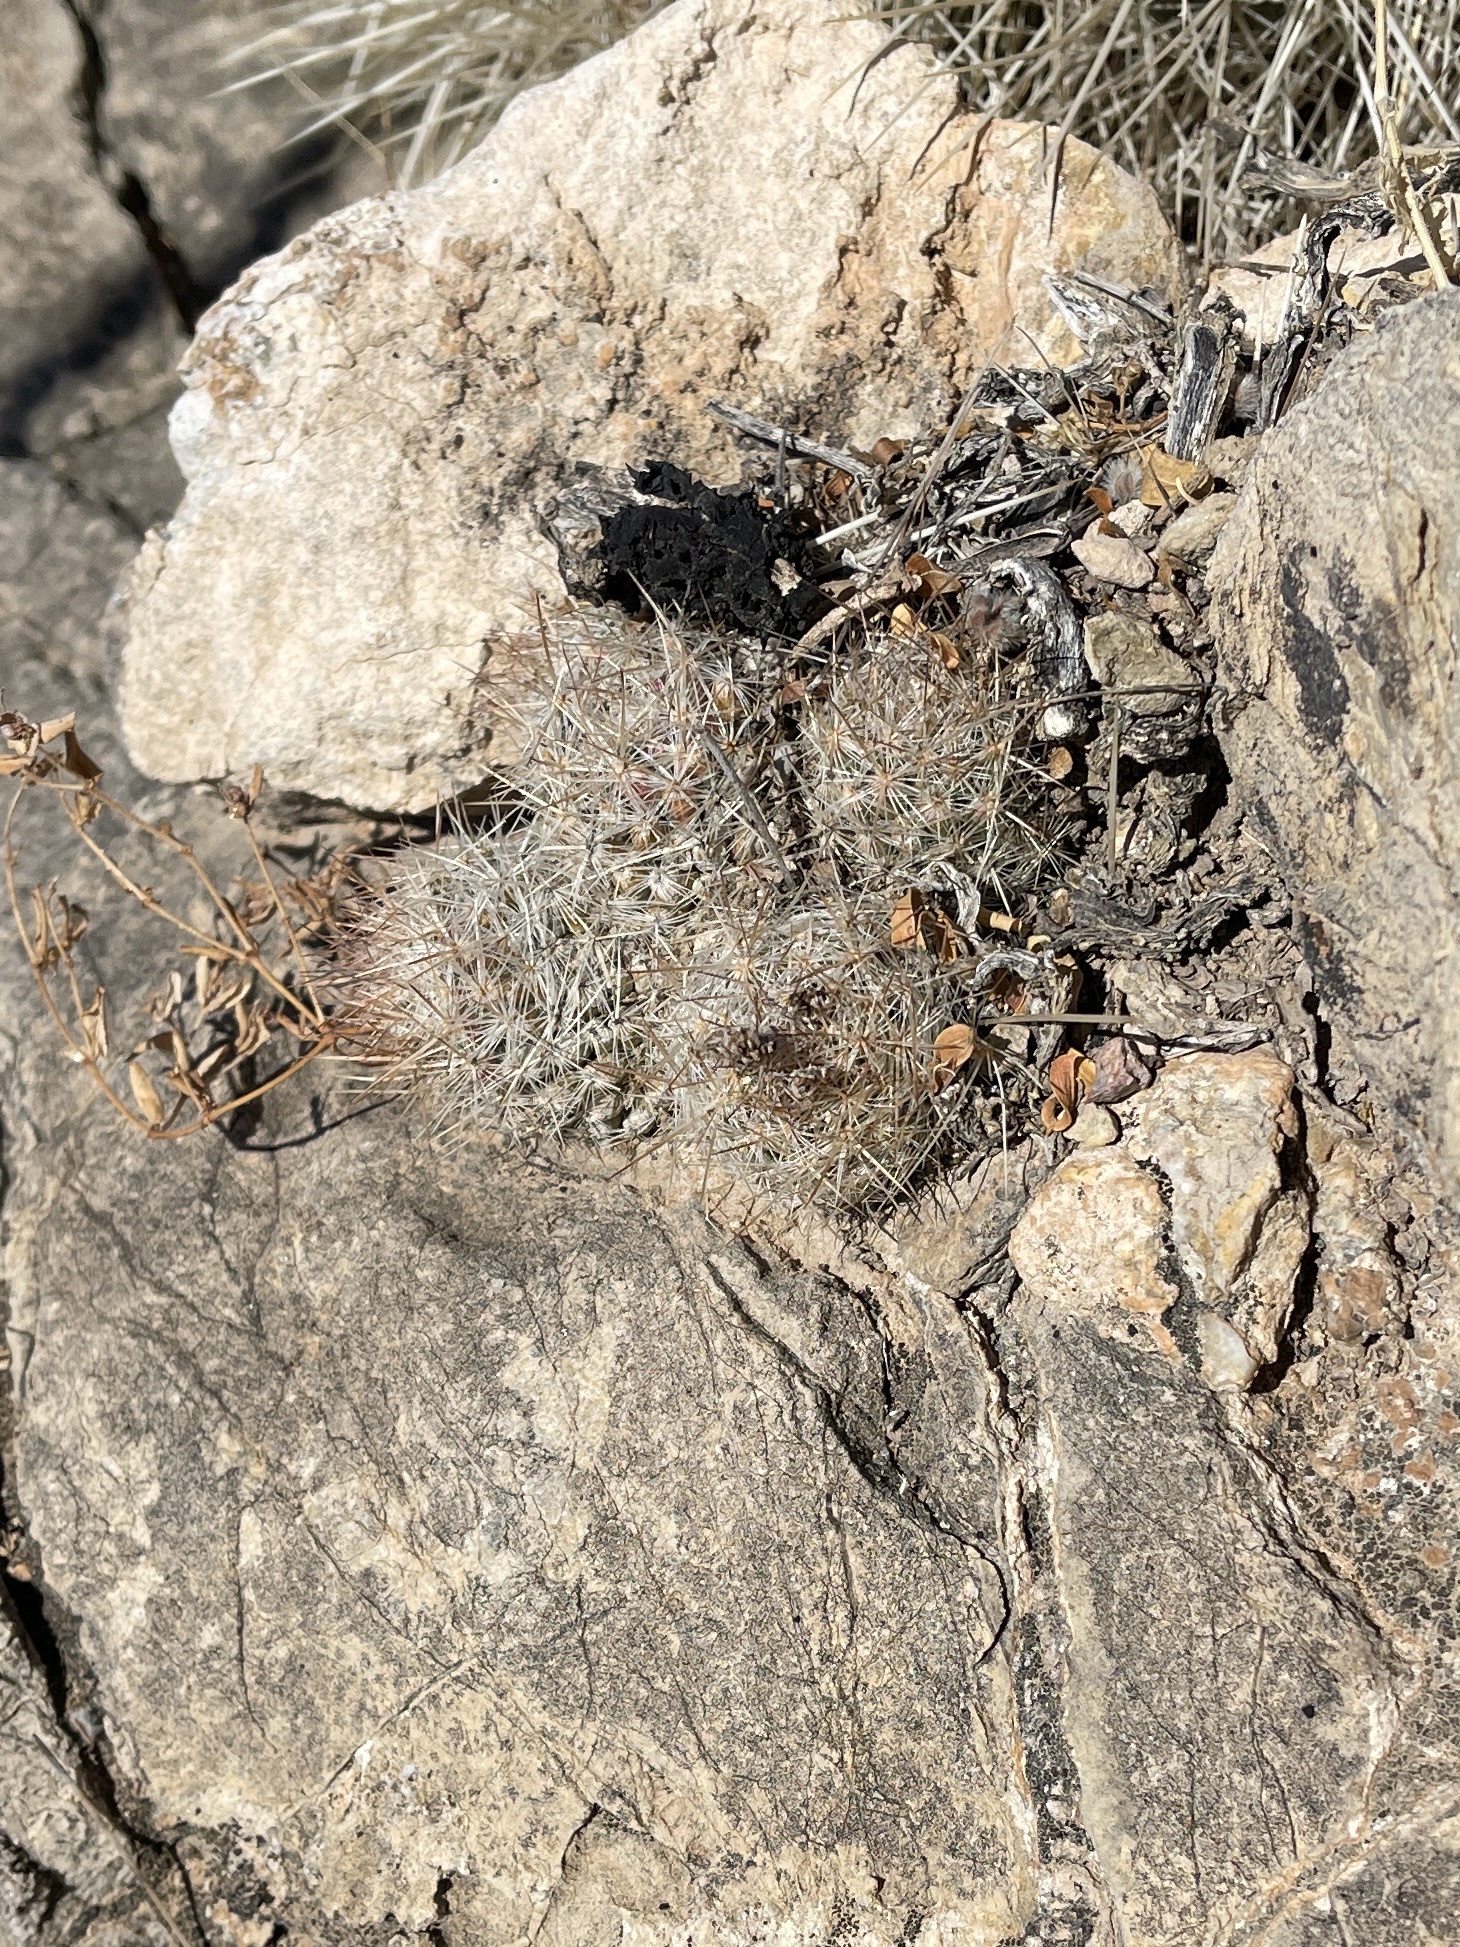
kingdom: Plantae
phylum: Tracheophyta
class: Magnoliopsida
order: Caryophyllales
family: Cactaceae
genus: Pelecyphora
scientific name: Pelecyphora tuberculosa
